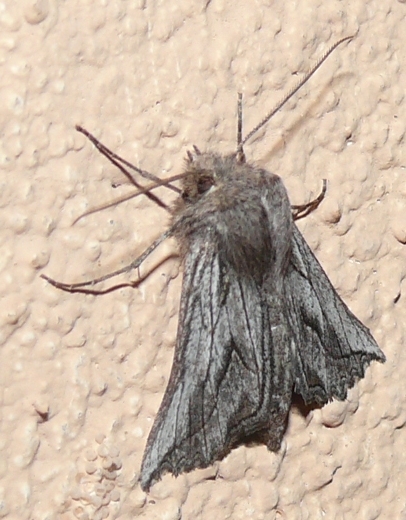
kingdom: Animalia
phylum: Arthropoda
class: Insecta
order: Lepidoptera
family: Geometridae
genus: Axiodes
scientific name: Axiodes
